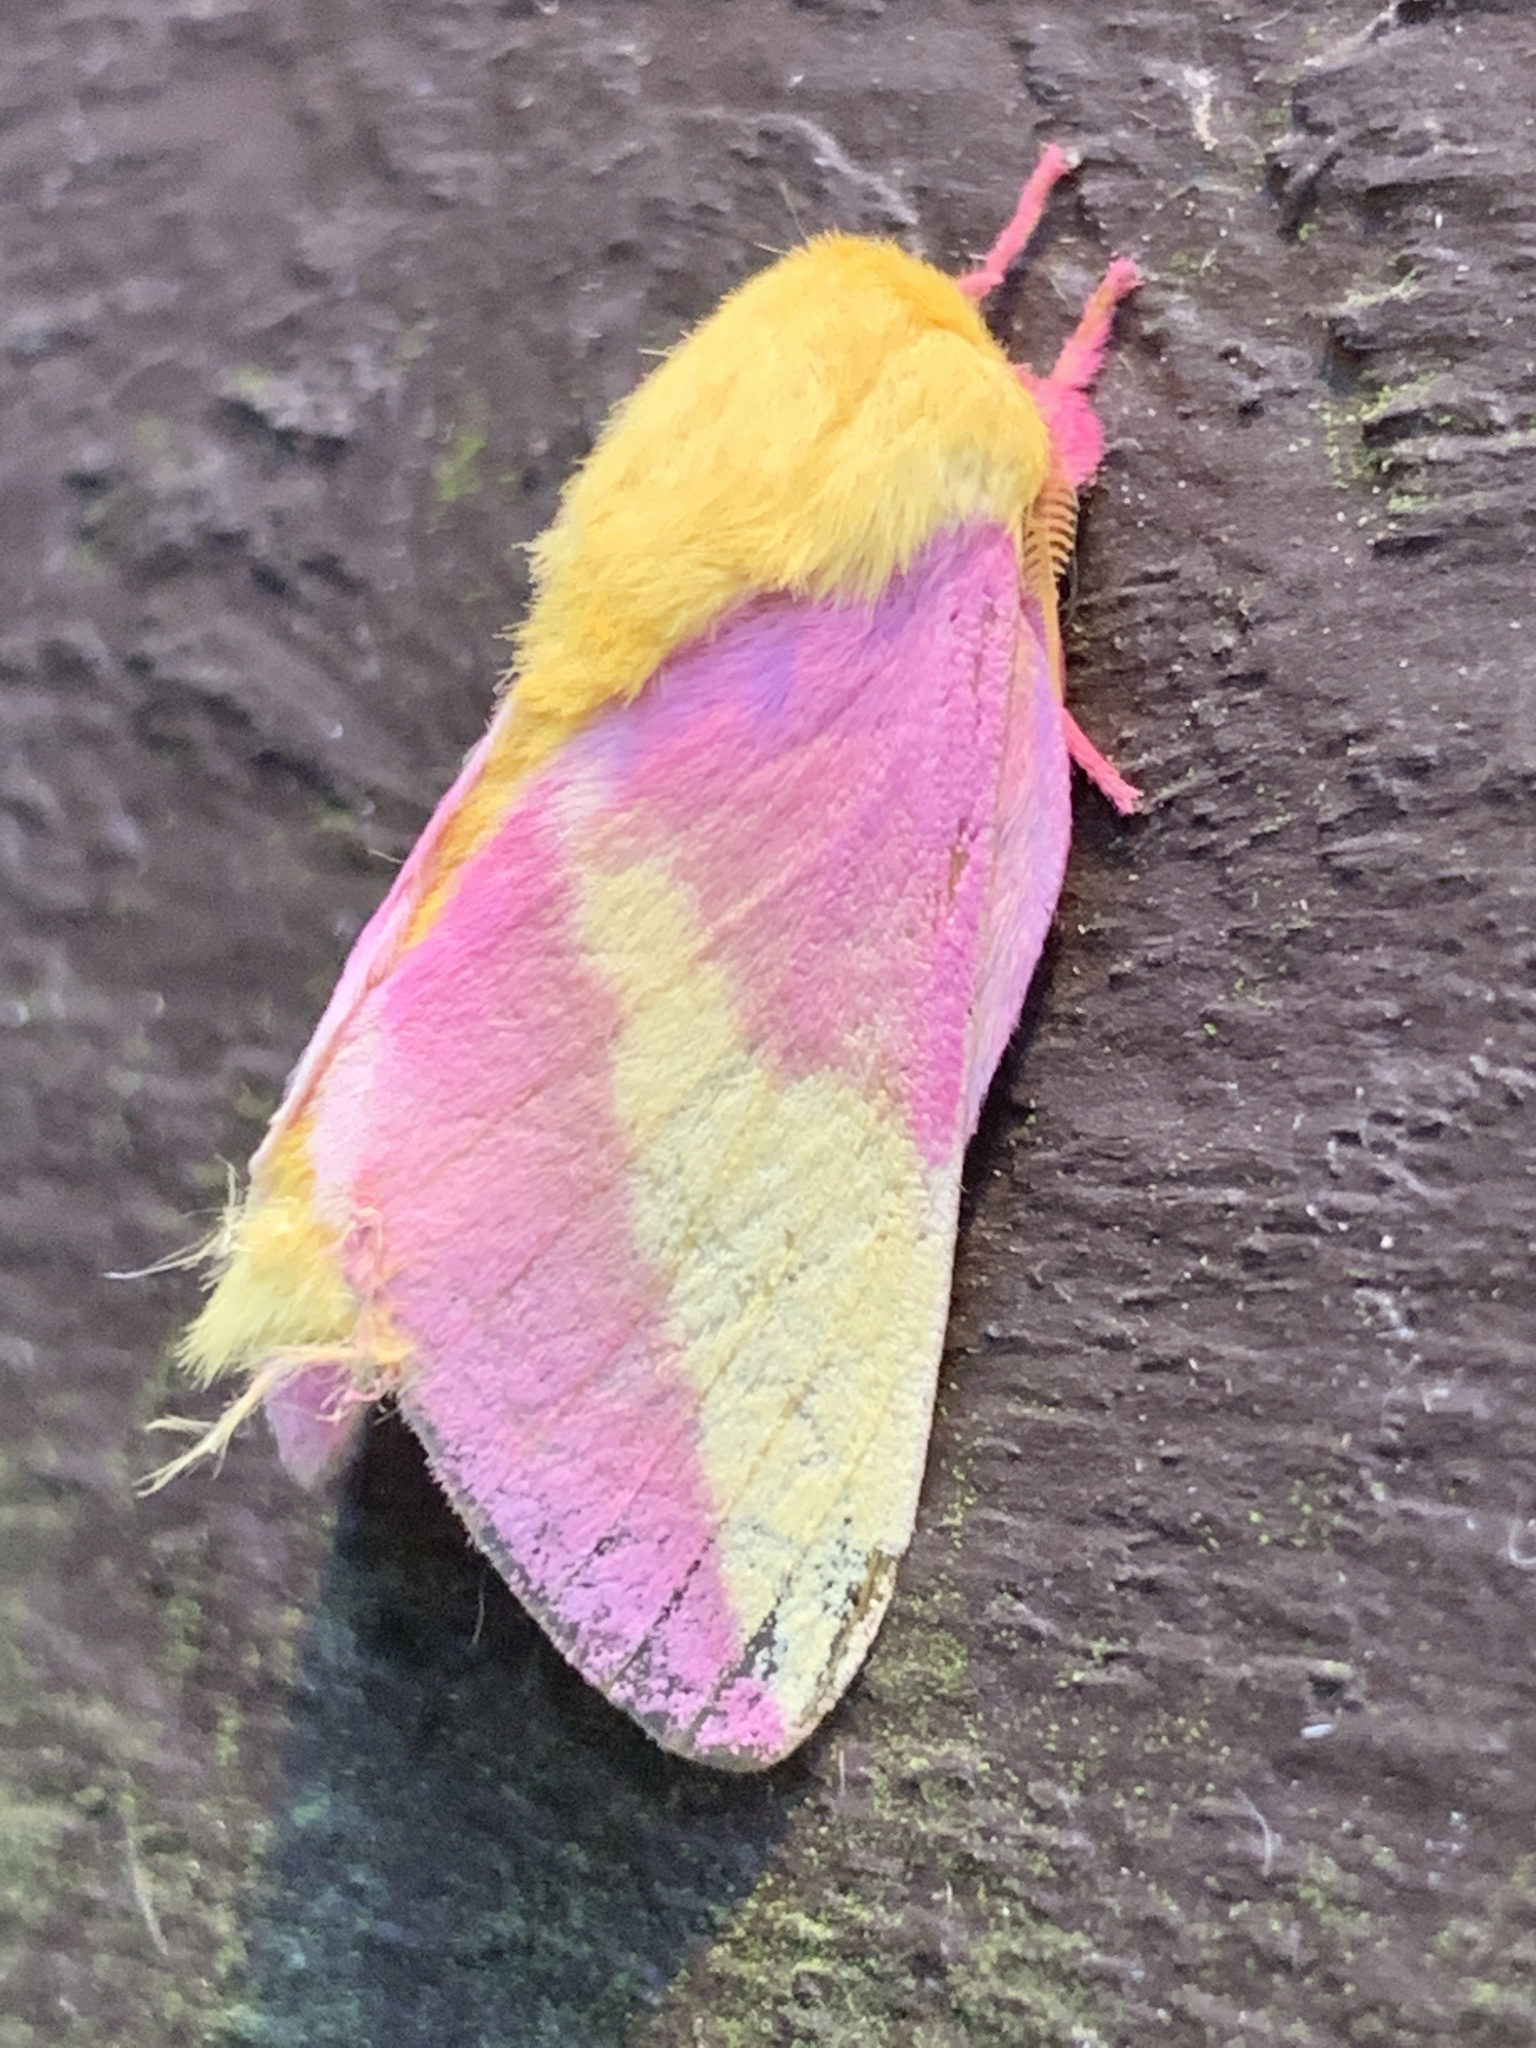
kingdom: Animalia
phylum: Arthropoda
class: Insecta
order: Lepidoptera
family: Saturniidae
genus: Dryocampa
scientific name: Dryocampa rubicunda
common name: Rosy maple moth
